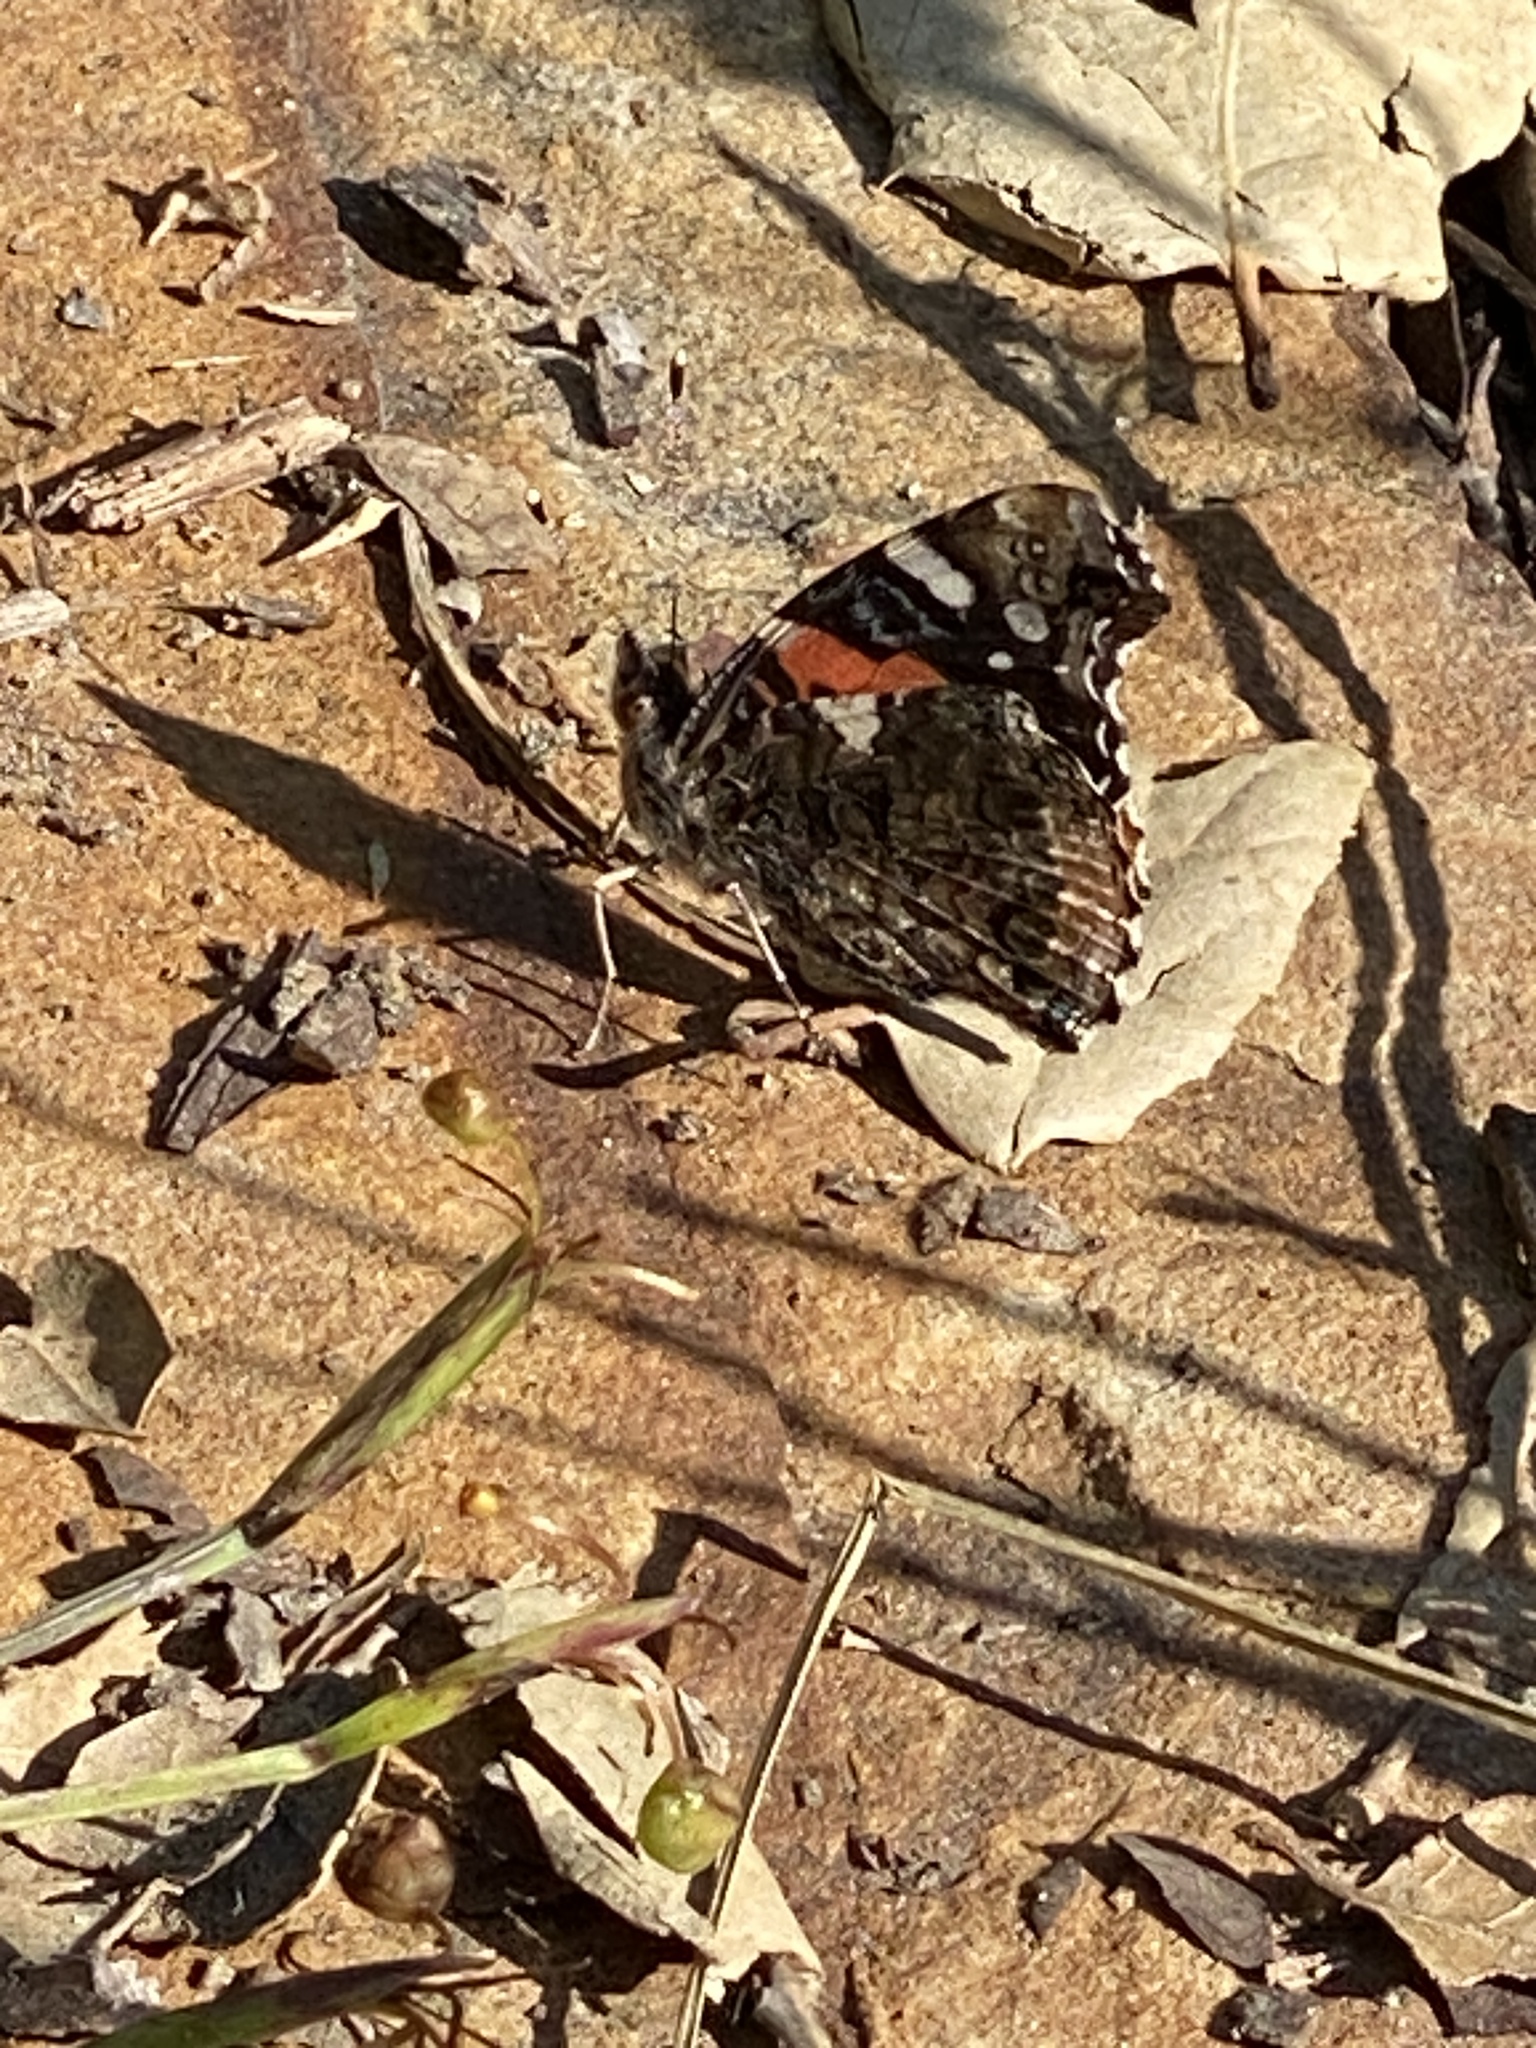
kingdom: Animalia
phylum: Arthropoda
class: Insecta
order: Lepidoptera
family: Nymphalidae
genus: Vanessa
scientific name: Vanessa atalanta
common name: Red admiral
